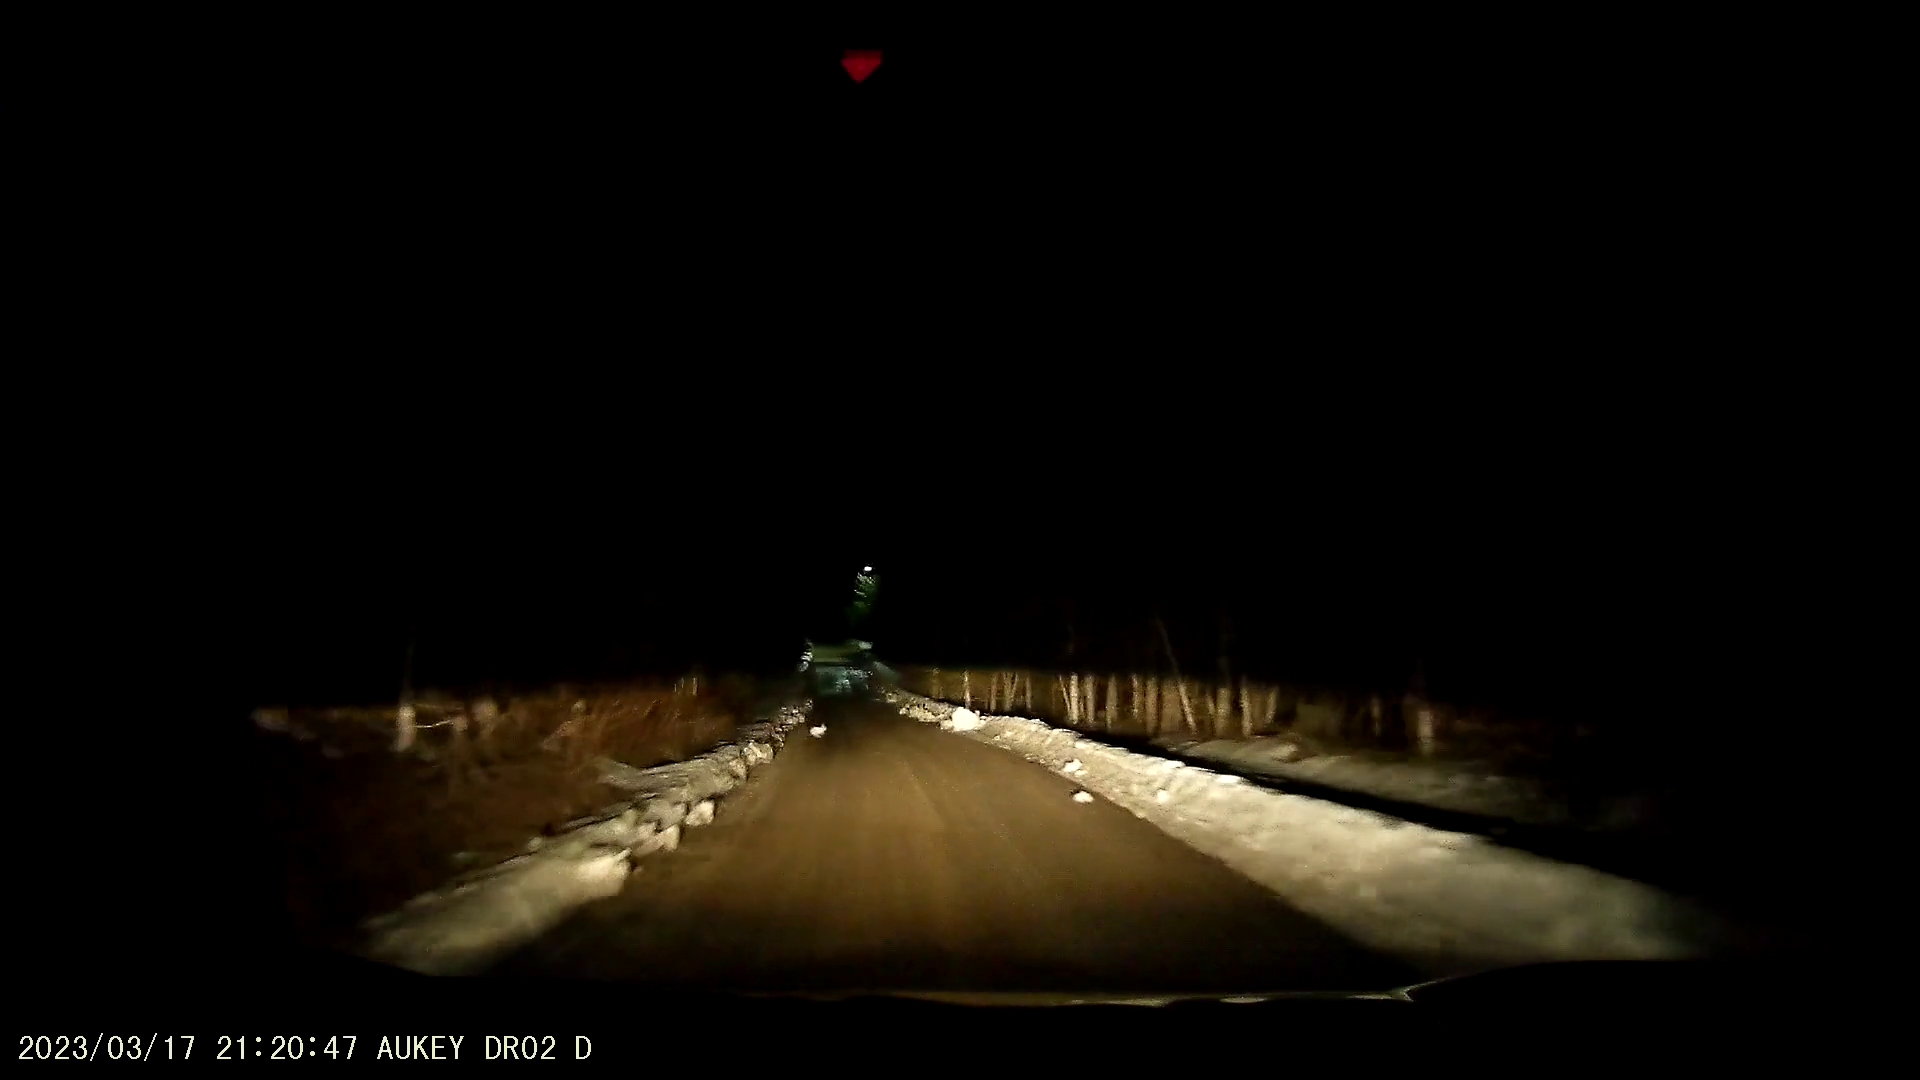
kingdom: Animalia
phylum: Chordata
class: Mammalia
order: Lagomorpha
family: Leporidae
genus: Lepus
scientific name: Lepus americanus
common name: Snowshoe hare
